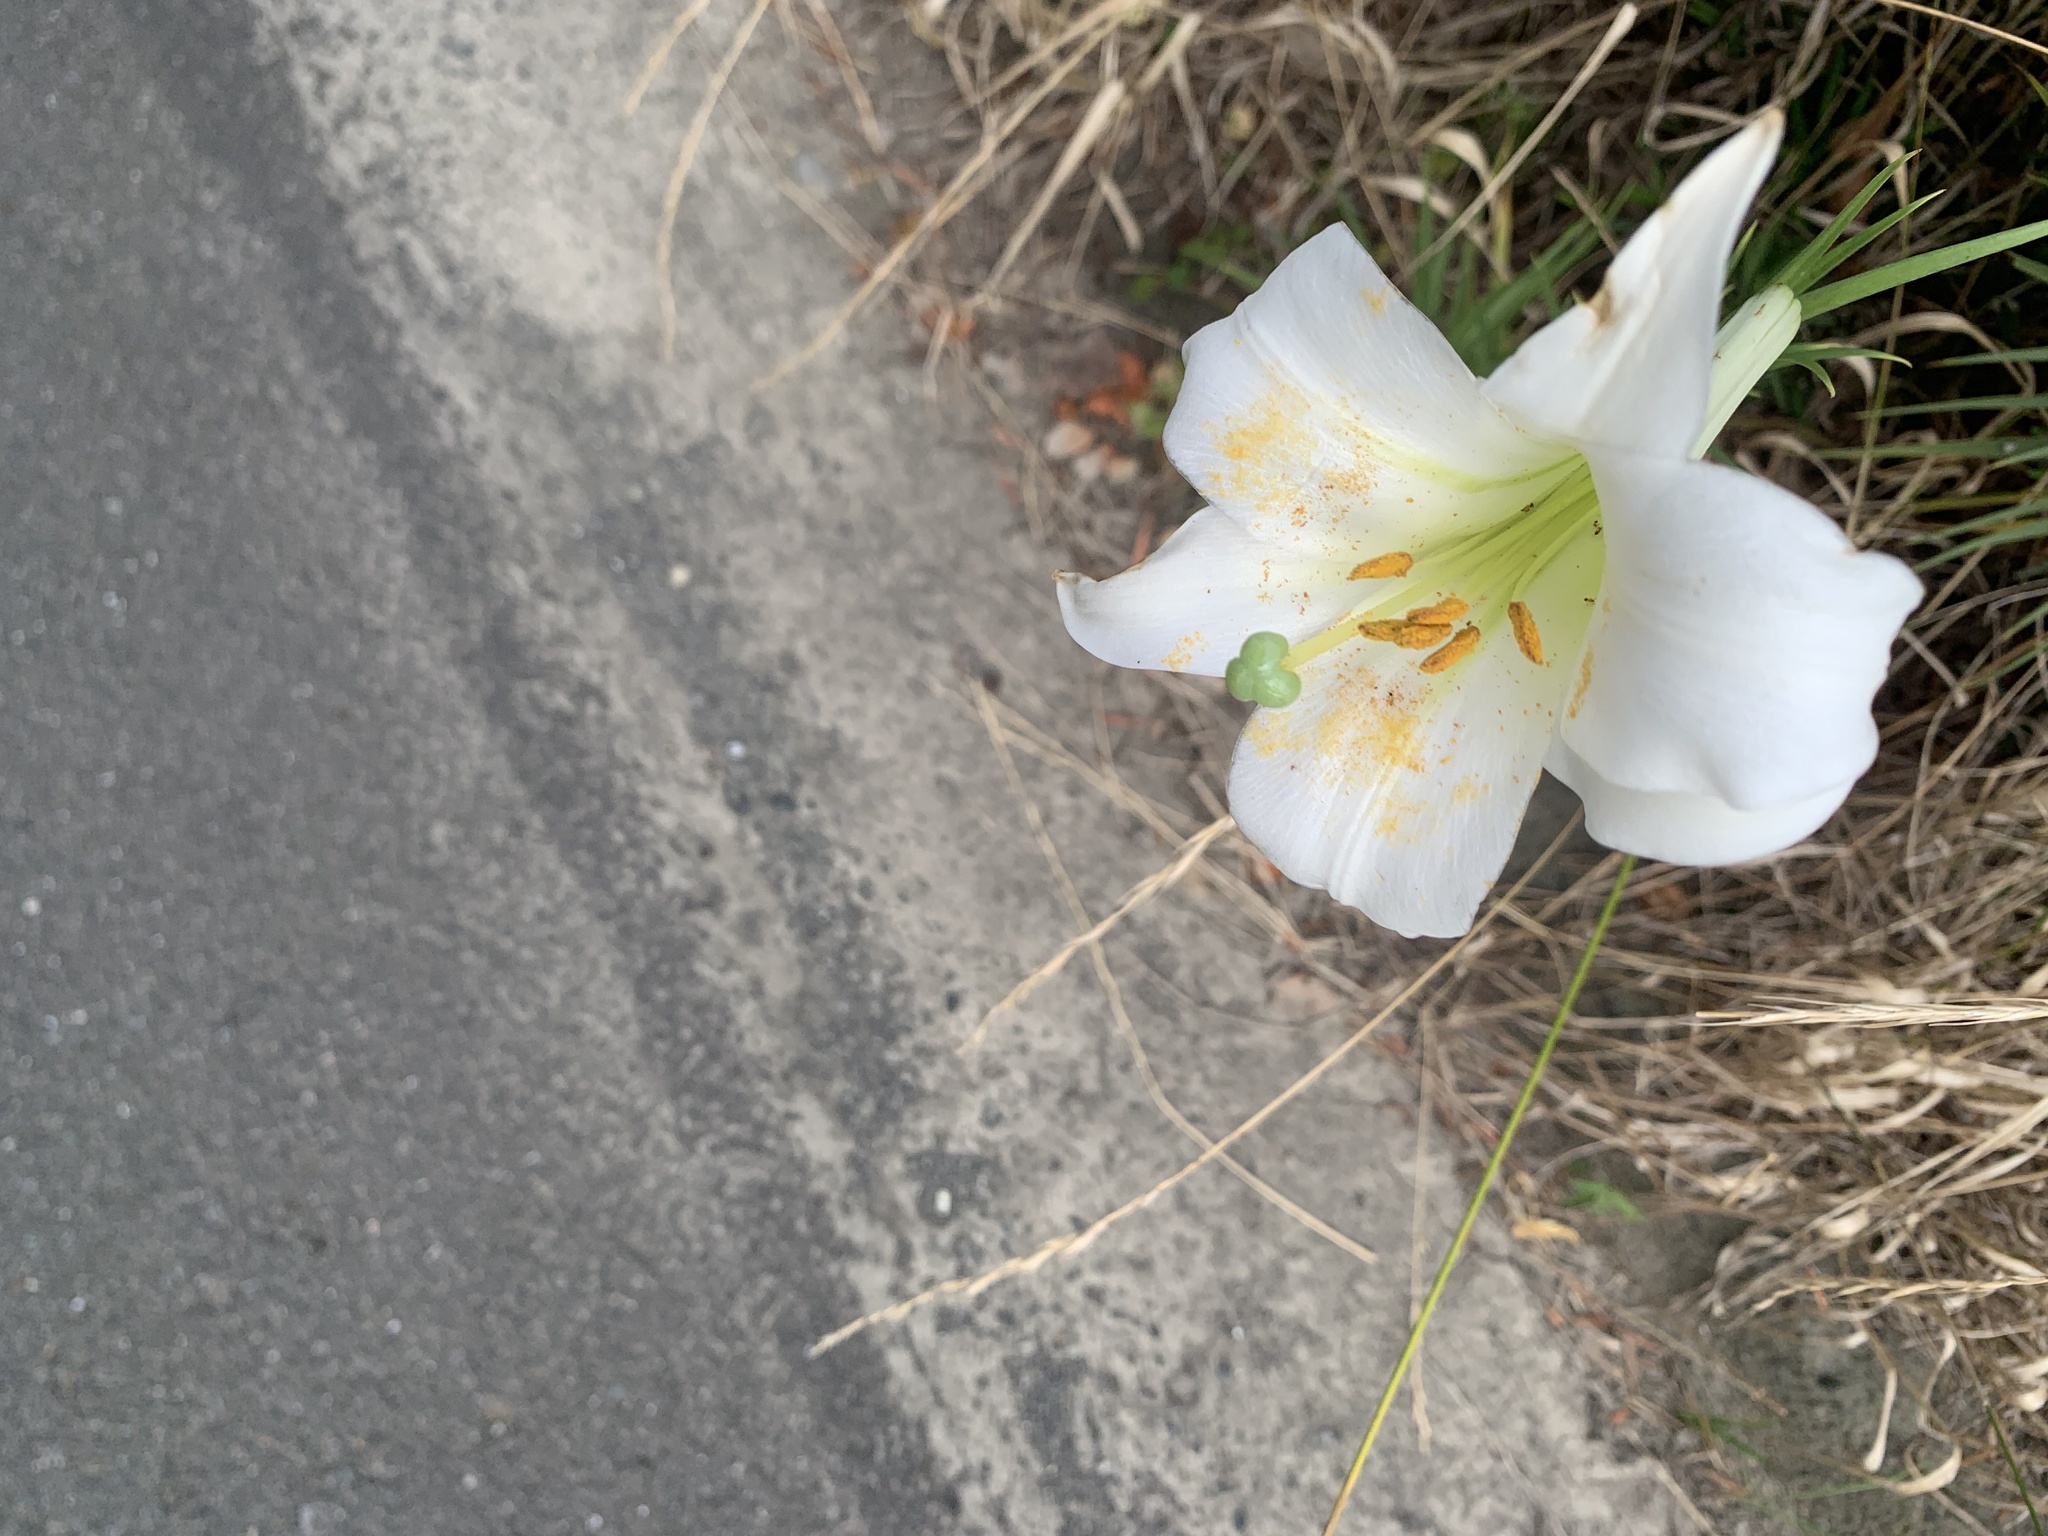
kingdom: Plantae
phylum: Tracheophyta
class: Liliopsida
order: Liliales
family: Liliaceae
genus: Lilium
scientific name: Lilium formosanum
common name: Formosa lily
